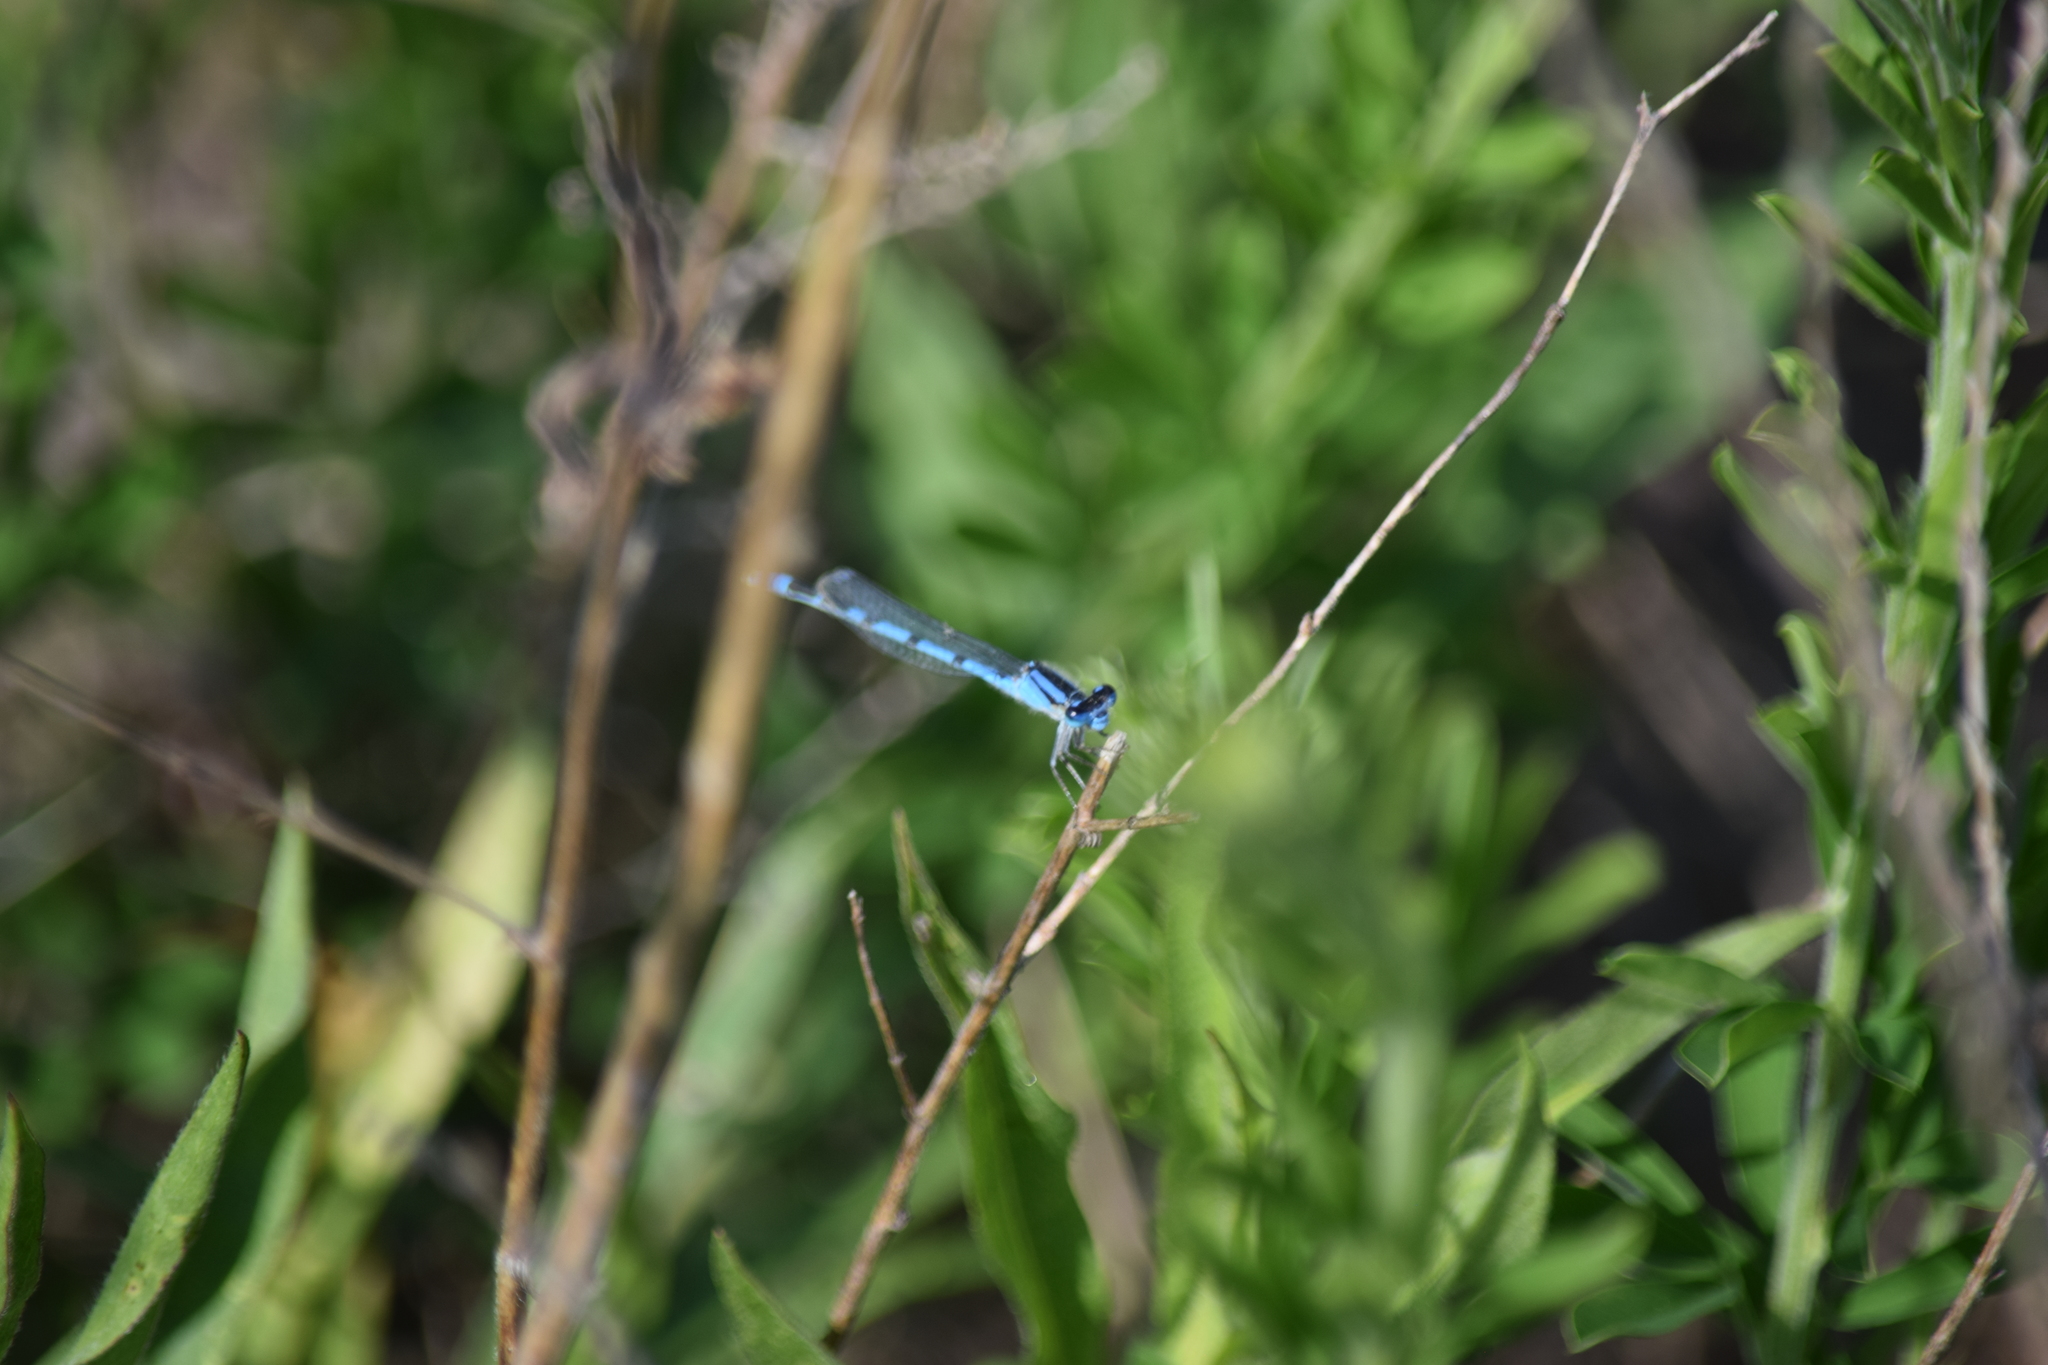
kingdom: Animalia
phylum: Arthropoda
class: Insecta
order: Odonata
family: Coenagrionidae
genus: Enallagma
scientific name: Enallagma civile
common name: Damselfly
